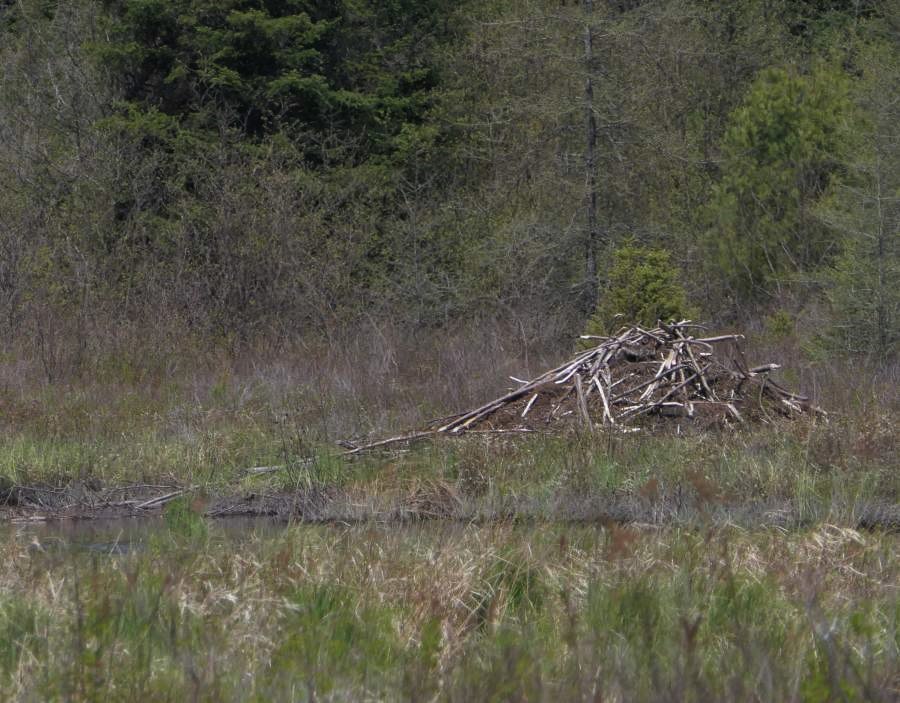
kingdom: Animalia
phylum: Chordata
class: Mammalia
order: Rodentia
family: Castoridae
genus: Castor
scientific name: Castor canadensis
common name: American beaver
